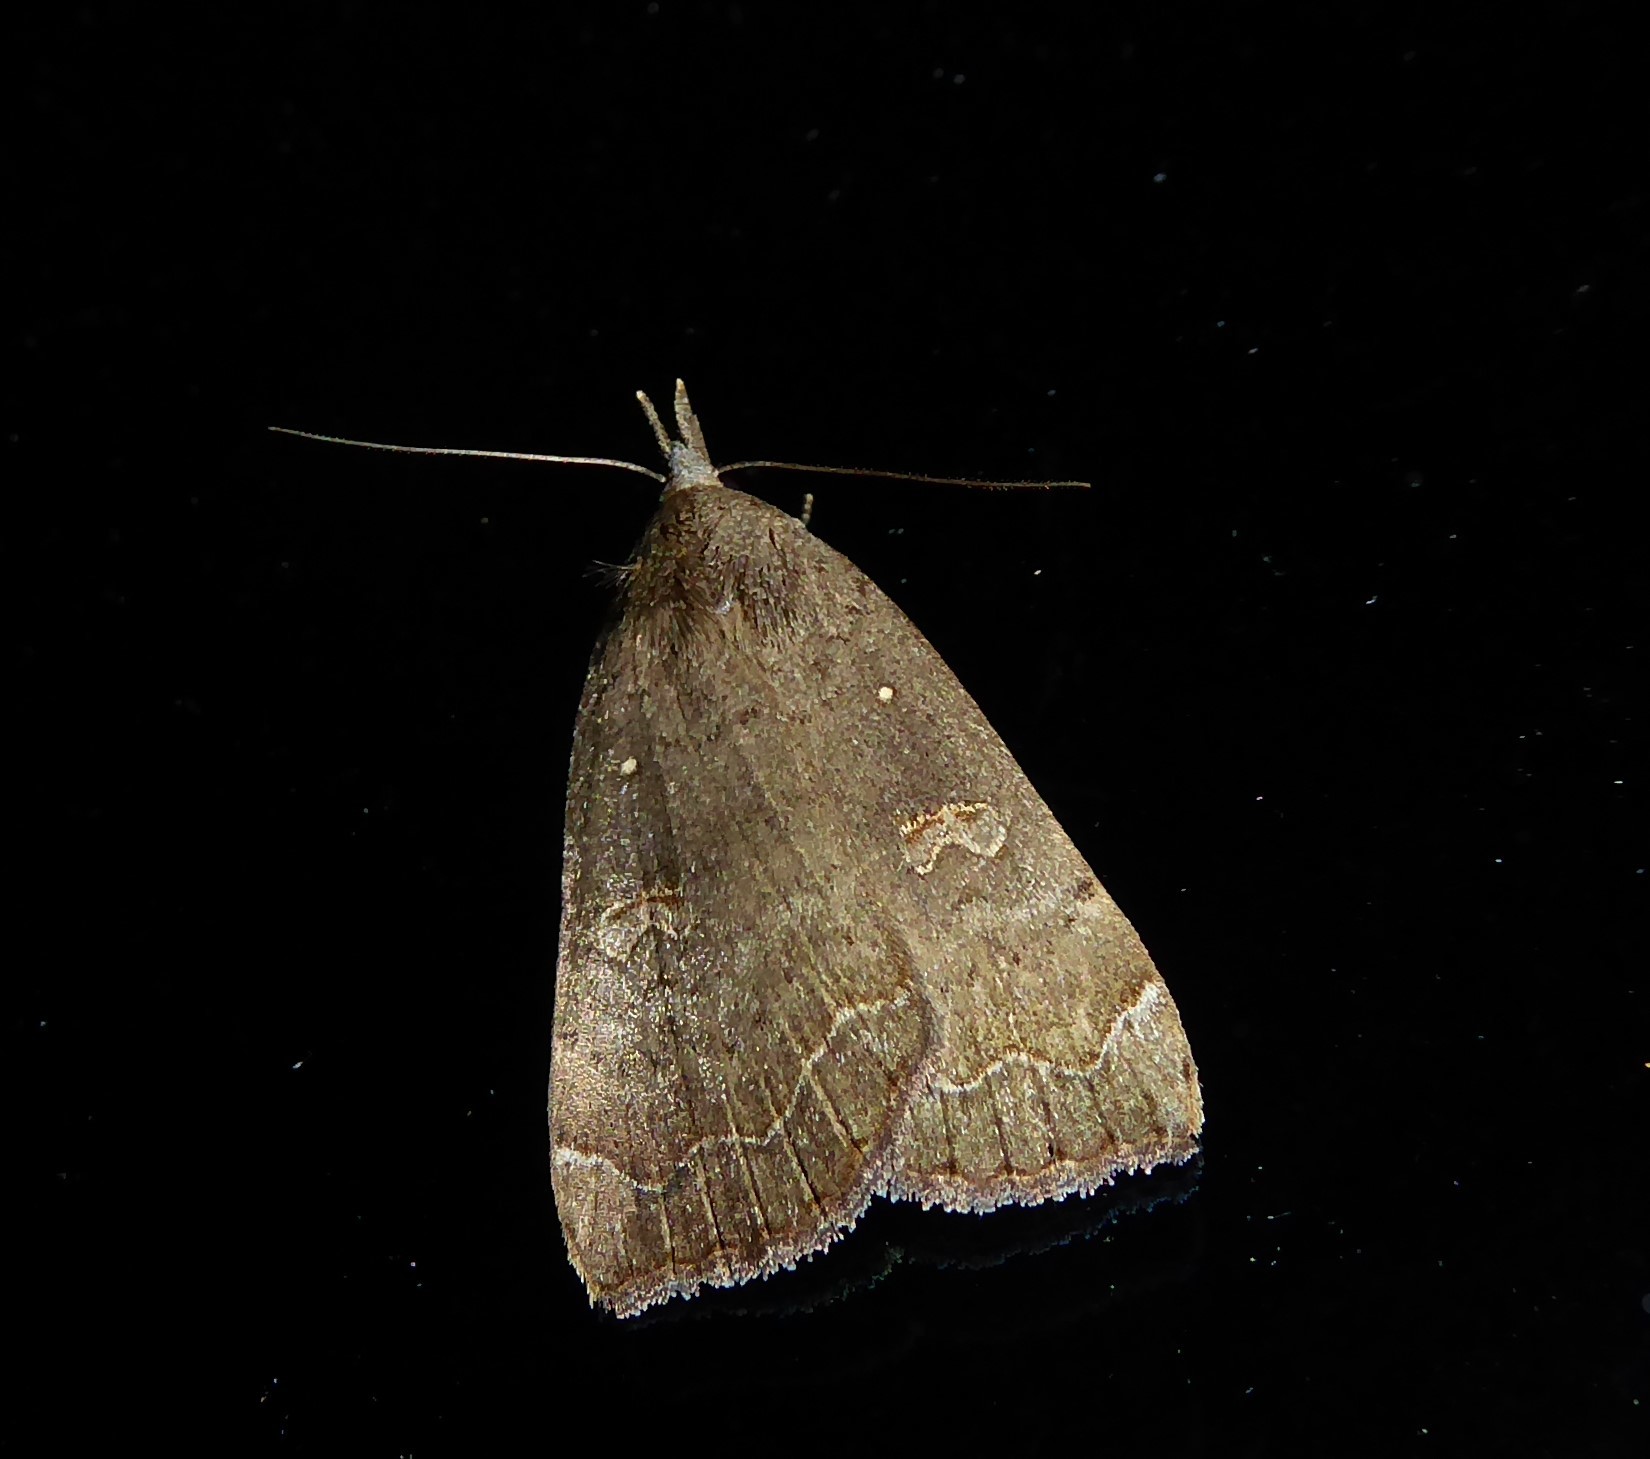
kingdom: Animalia
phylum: Arthropoda
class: Insecta
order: Lepidoptera
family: Erebidae
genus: Rhapsa
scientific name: Rhapsa scotosialis
